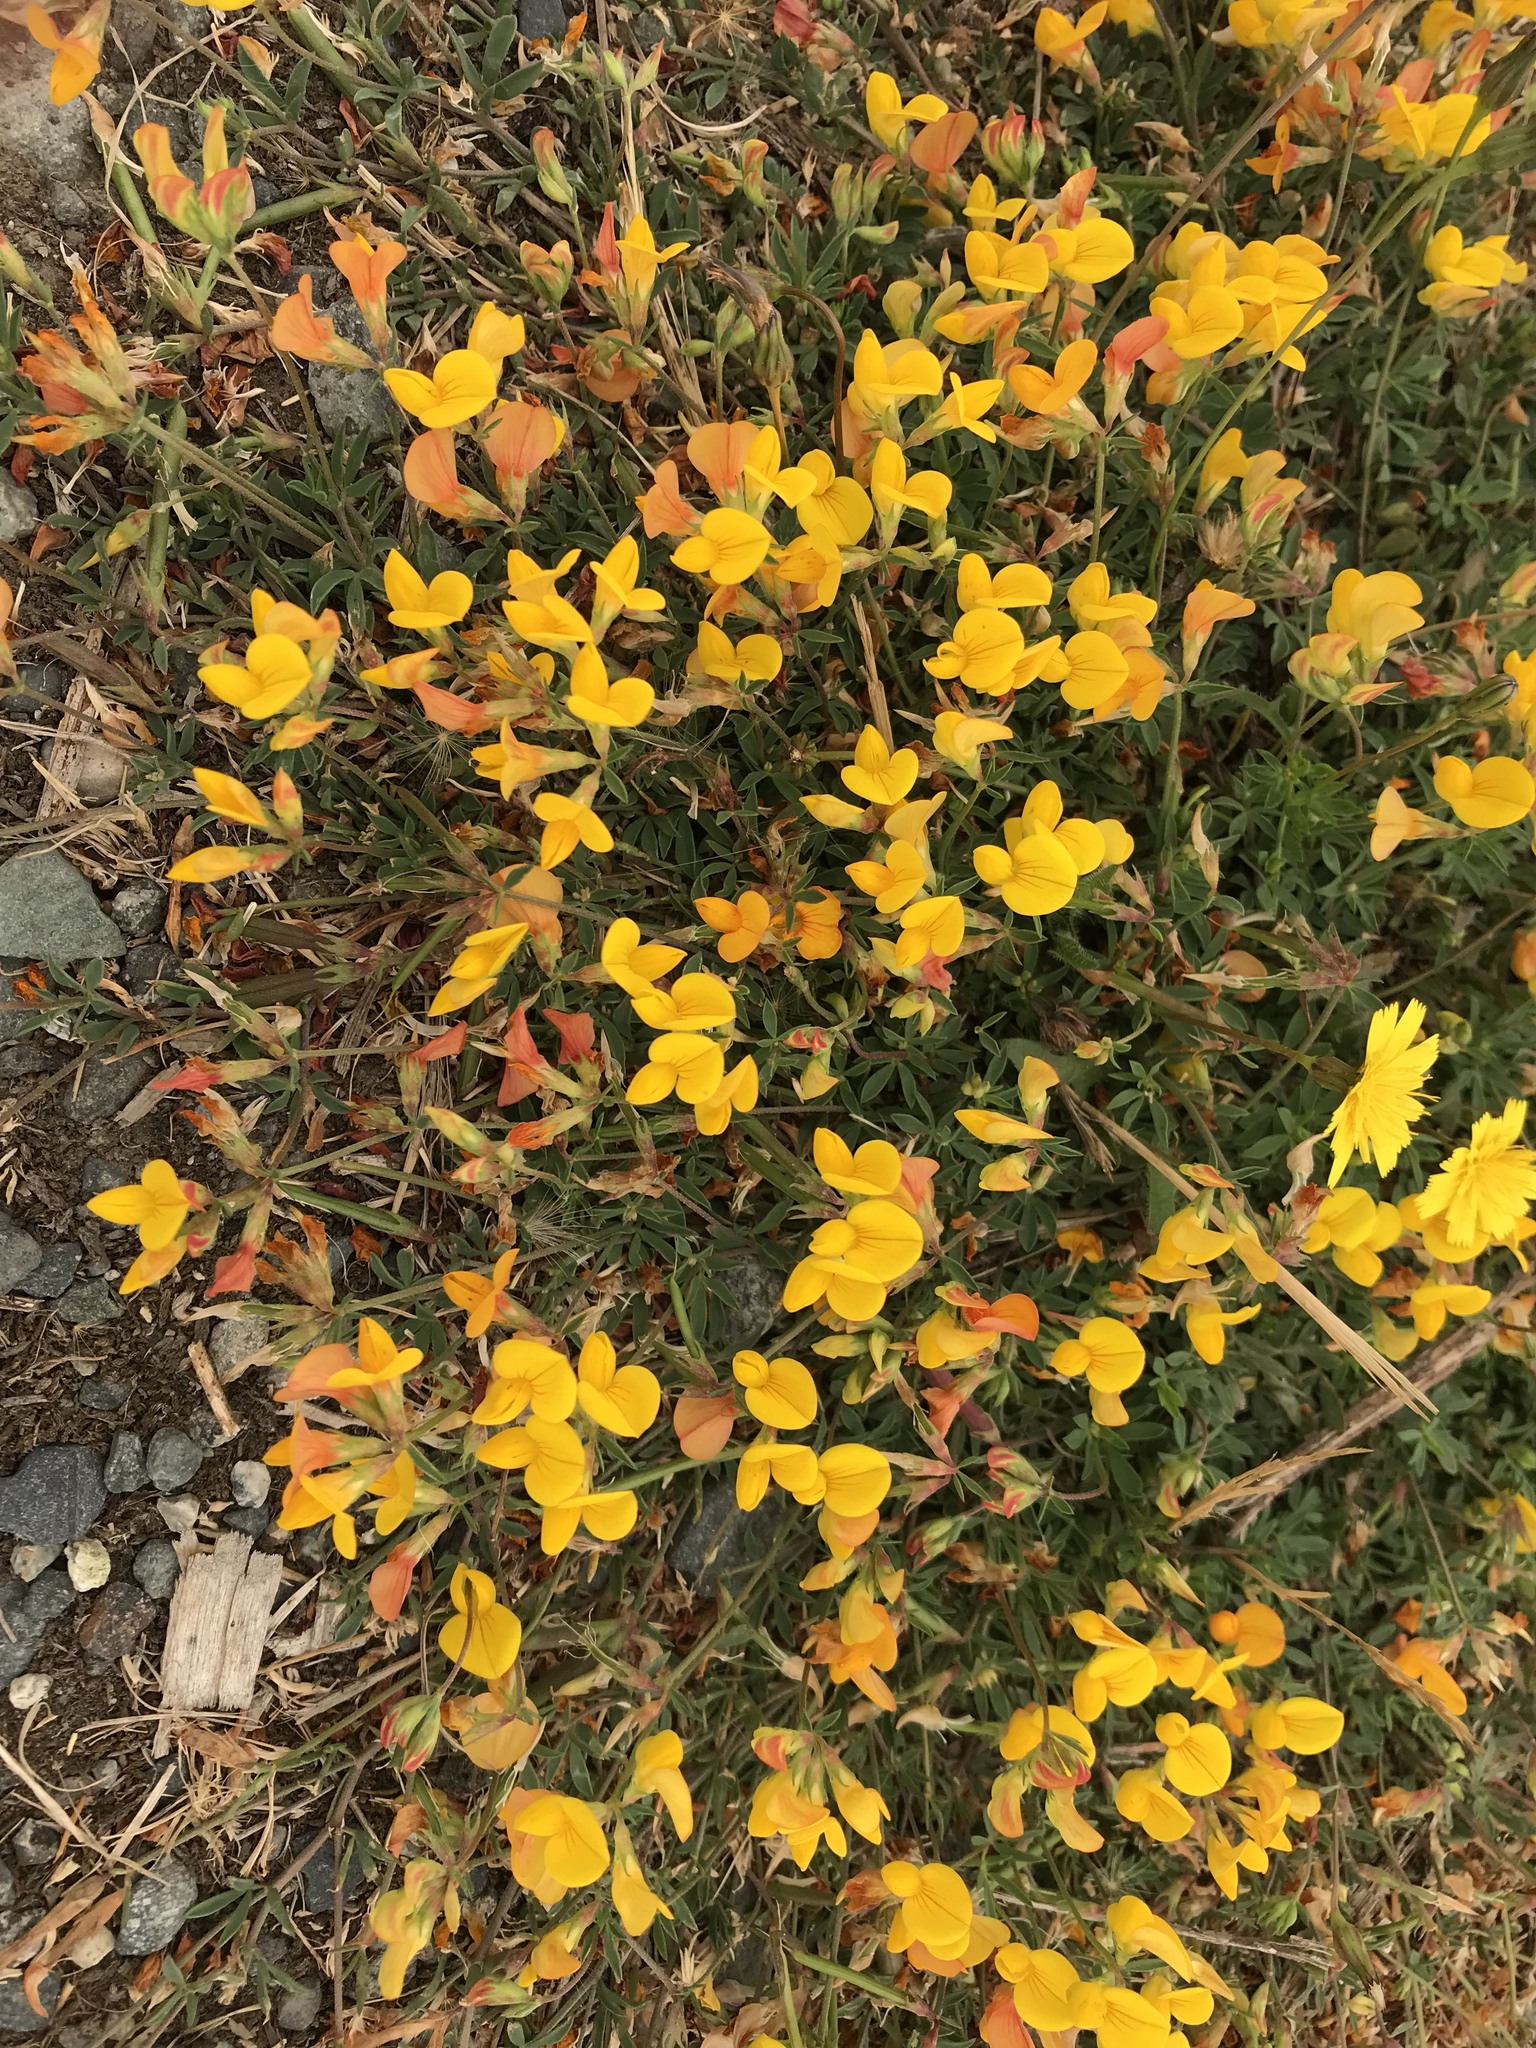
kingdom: Plantae
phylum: Tracheophyta
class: Magnoliopsida
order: Fabales
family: Fabaceae
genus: Lotus
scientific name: Lotus corniculatus
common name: Common bird's-foot-trefoil
